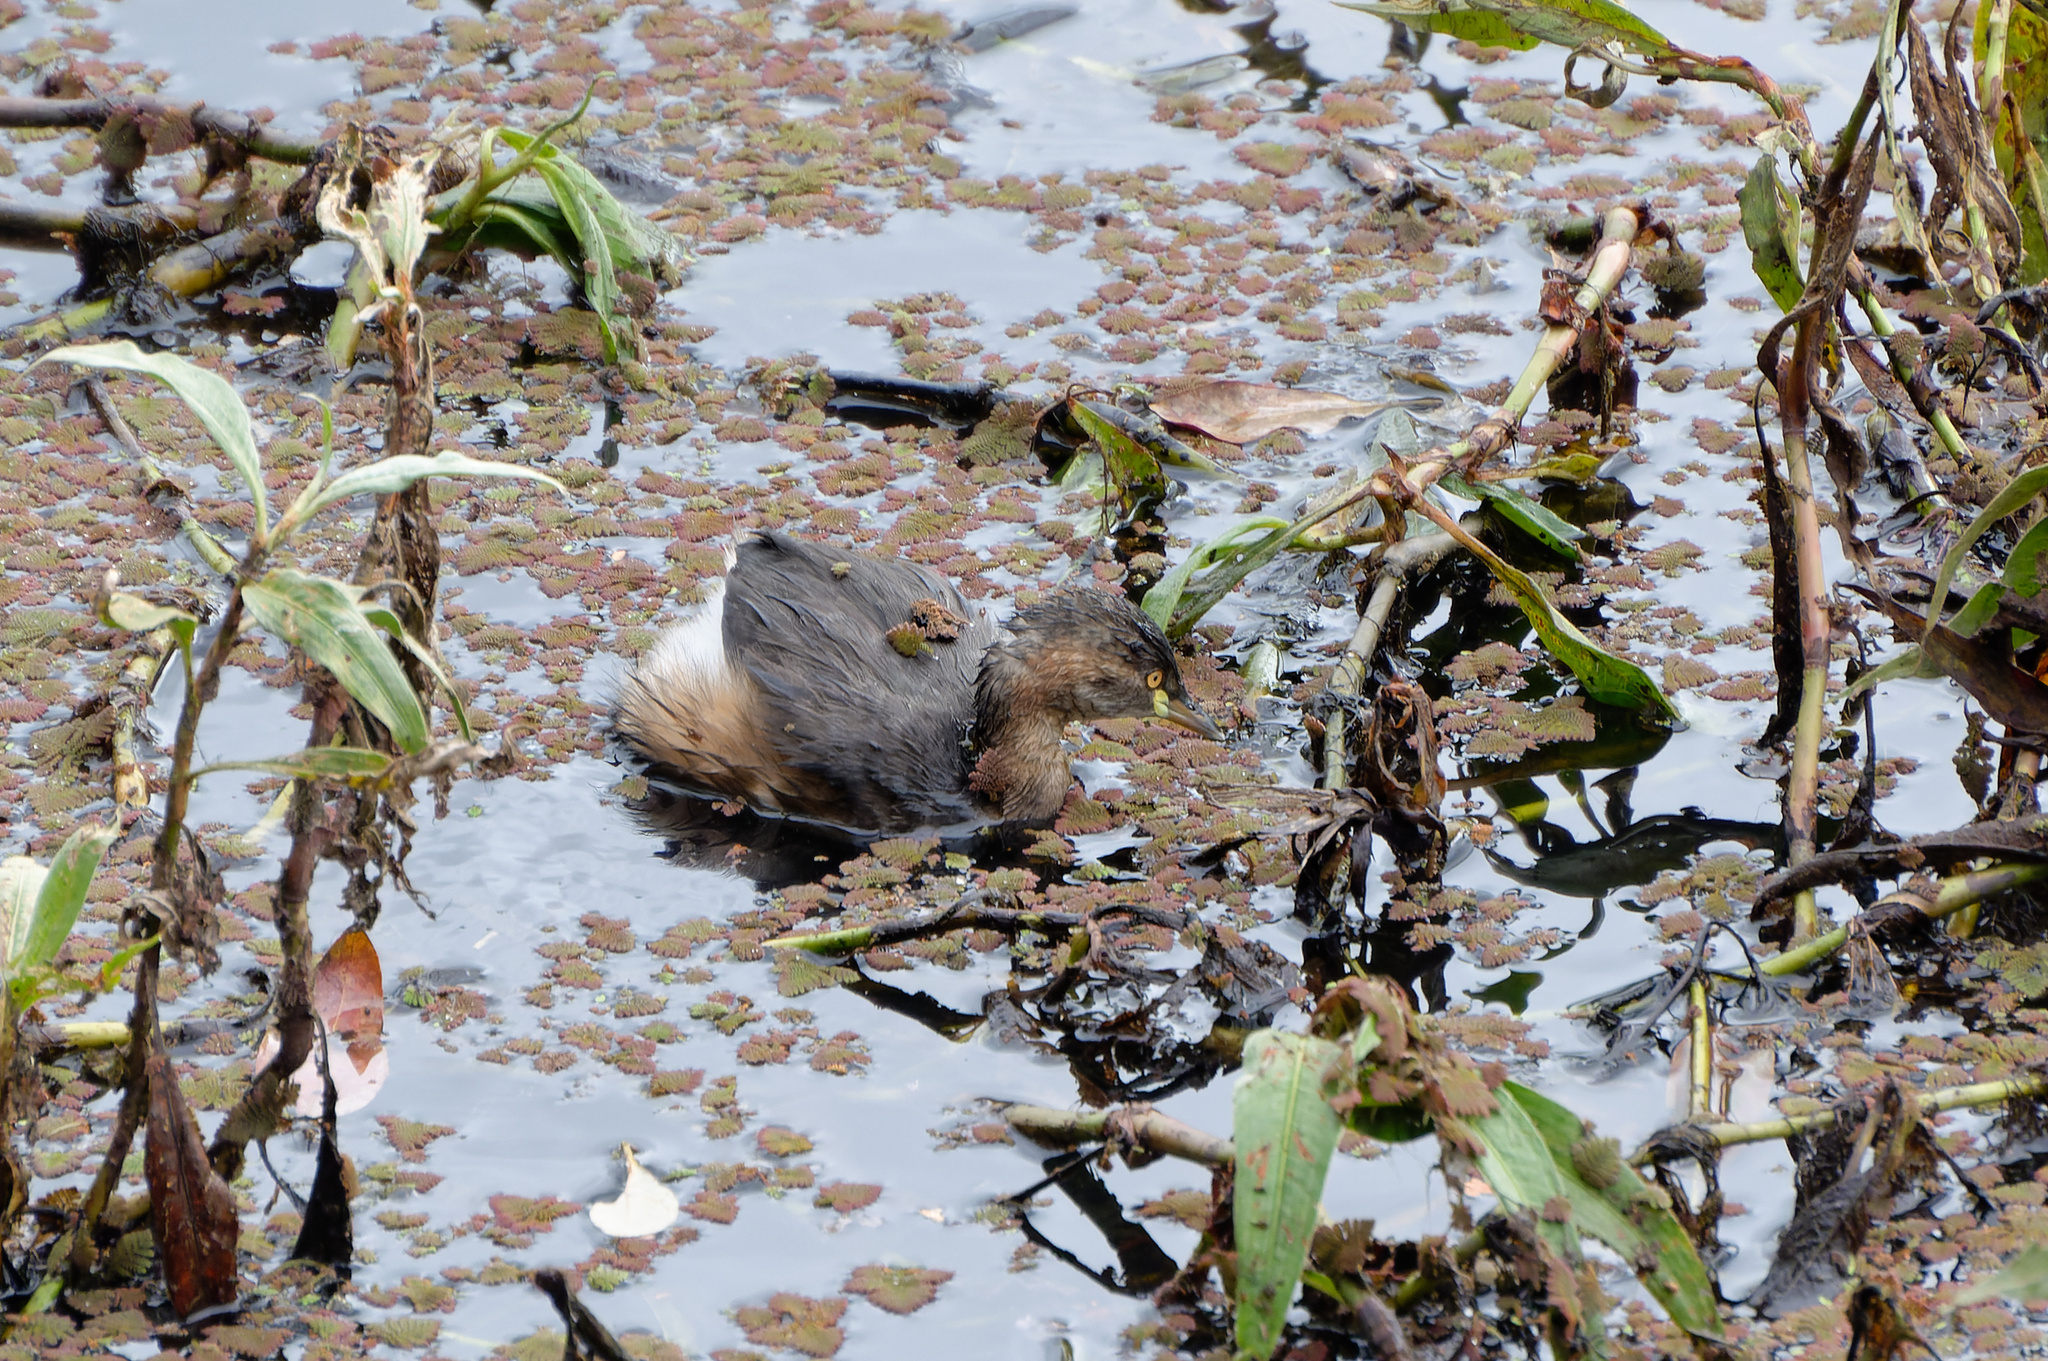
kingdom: Animalia
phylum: Chordata
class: Aves
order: Podicipediformes
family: Podicipedidae
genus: Tachybaptus
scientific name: Tachybaptus novaehollandiae
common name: Australasian grebe
